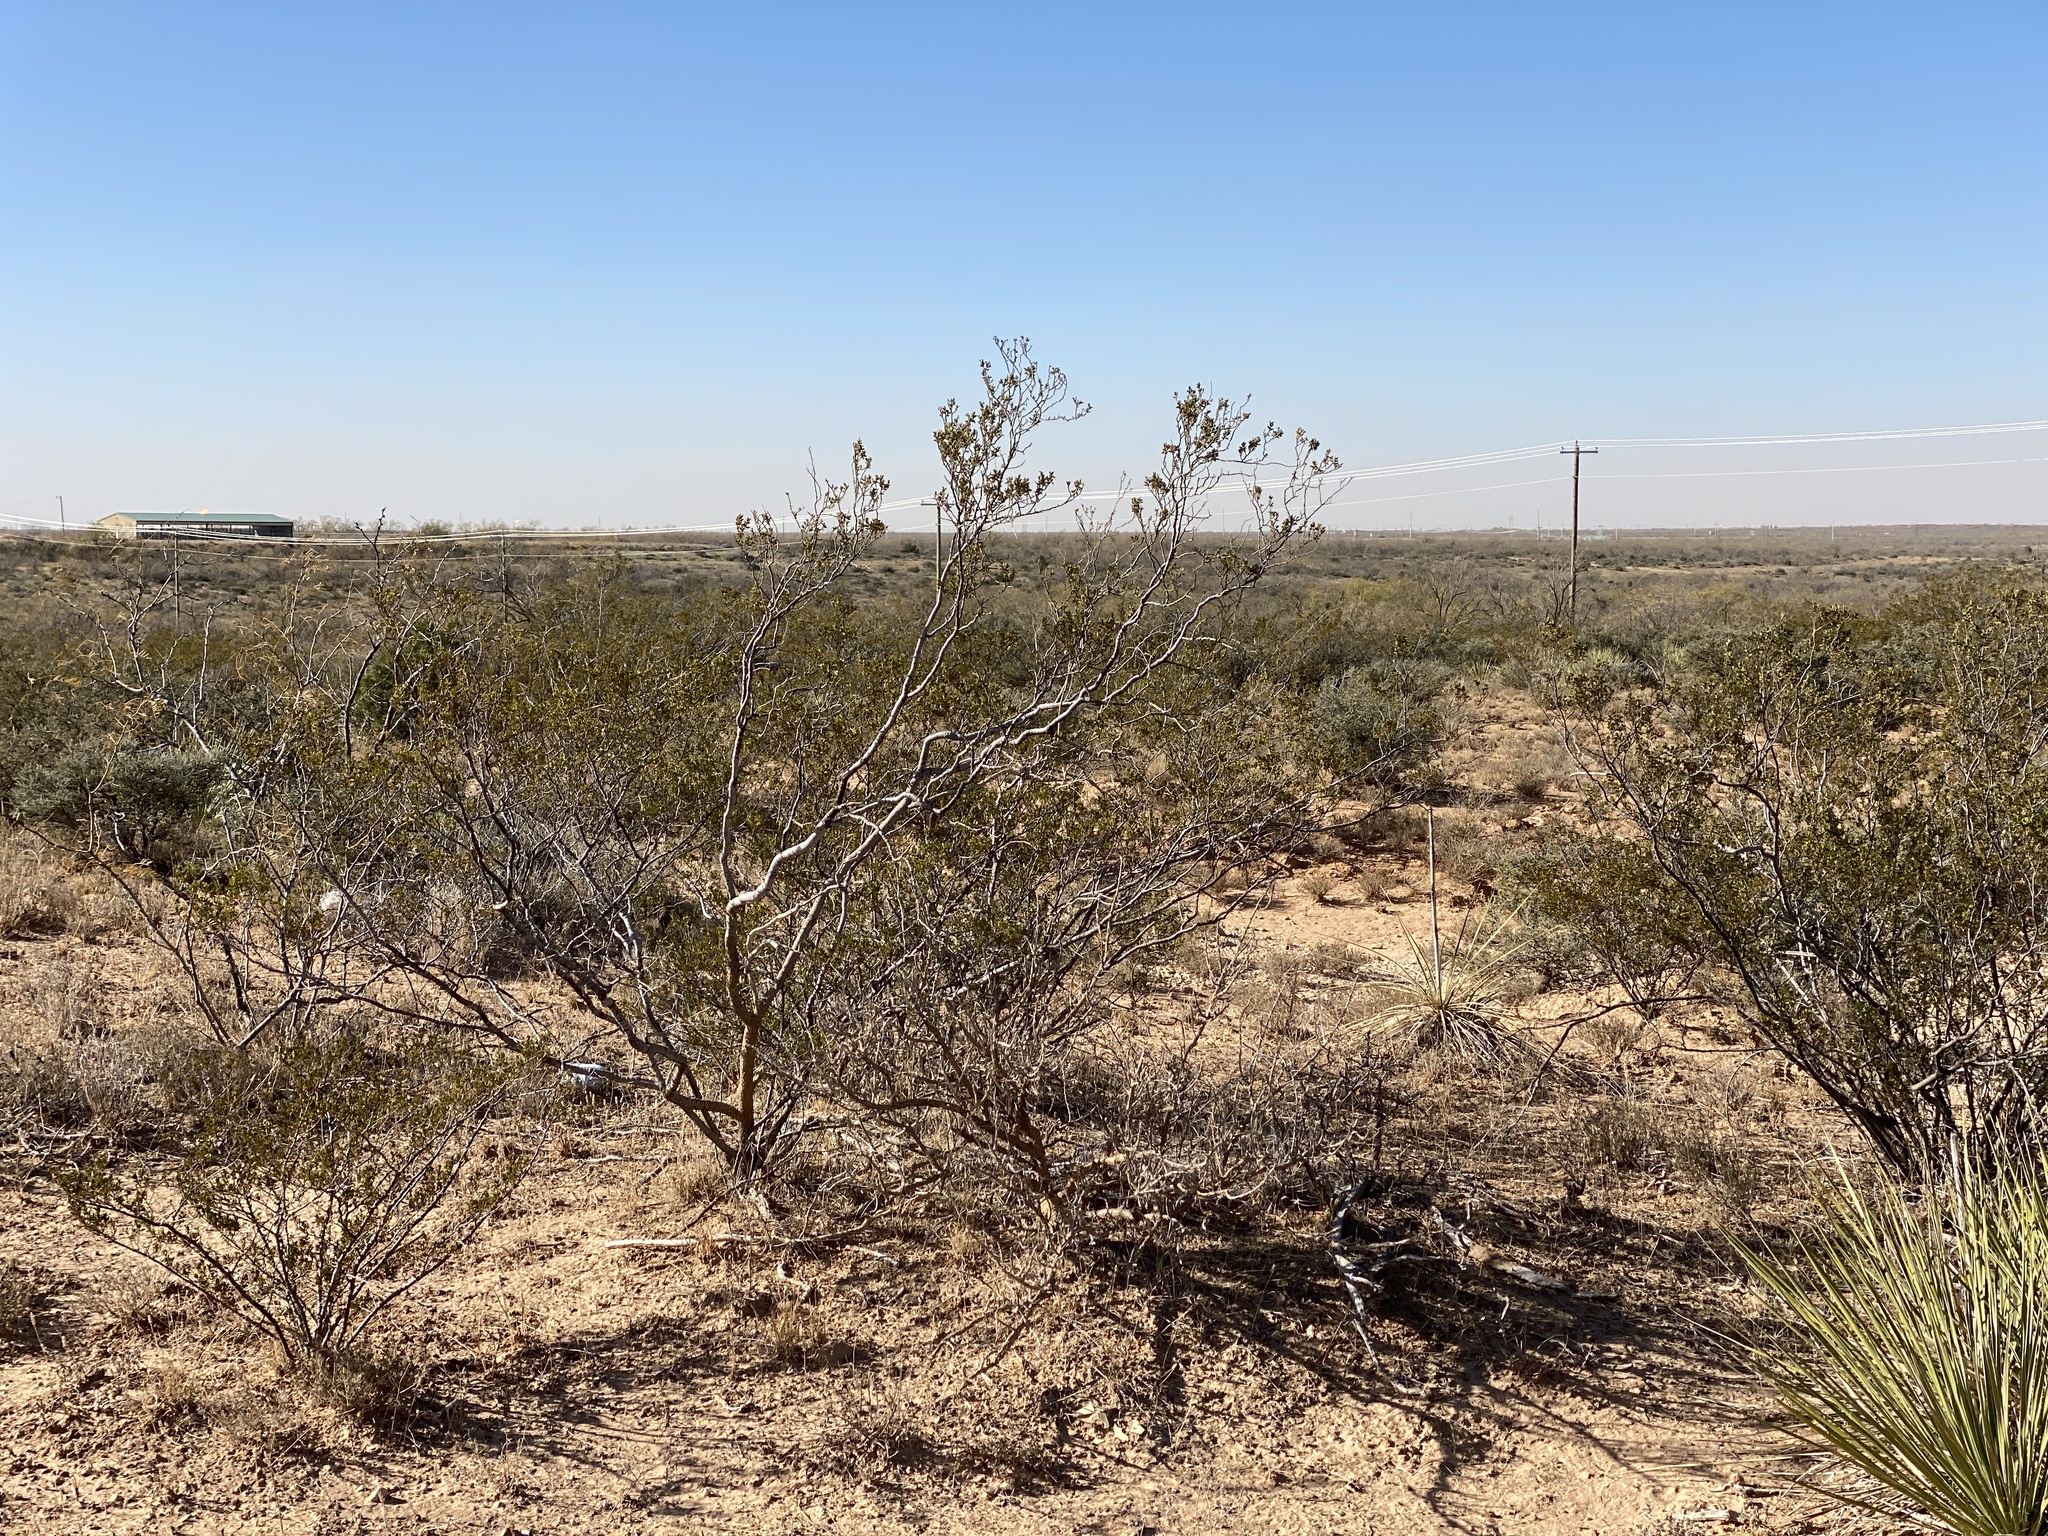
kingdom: Plantae
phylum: Tracheophyta
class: Magnoliopsida
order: Zygophyllales
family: Zygophyllaceae
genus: Larrea
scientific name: Larrea tridentata
